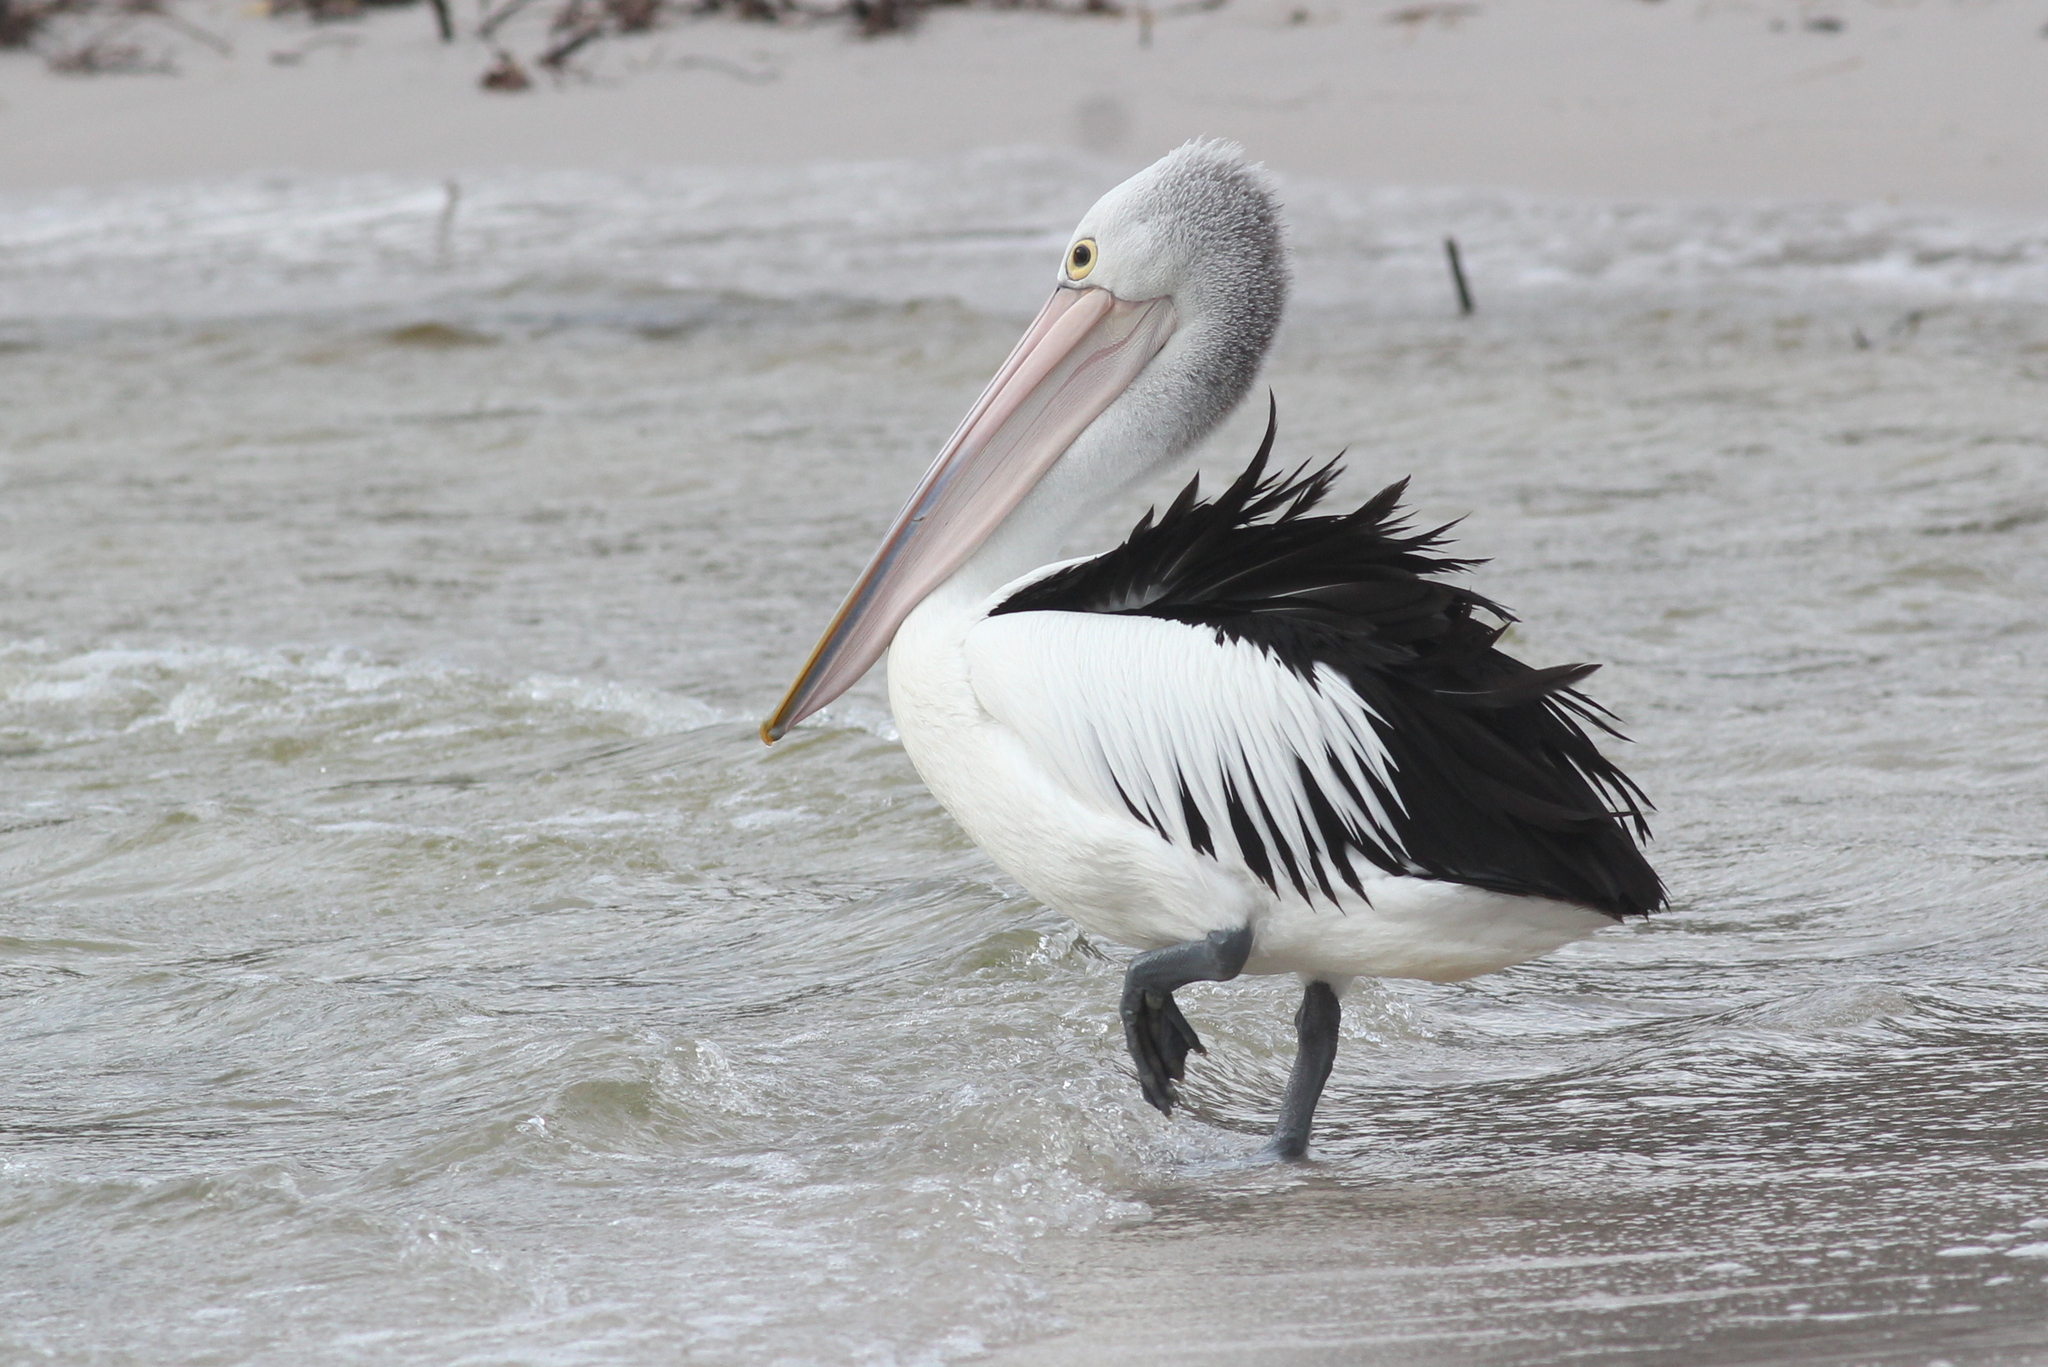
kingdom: Animalia
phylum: Chordata
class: Aves
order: Pelecaniformes
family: Pelecanidae
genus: Pelecanus
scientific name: Pelecanus conspicillatus
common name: Australian pelican
